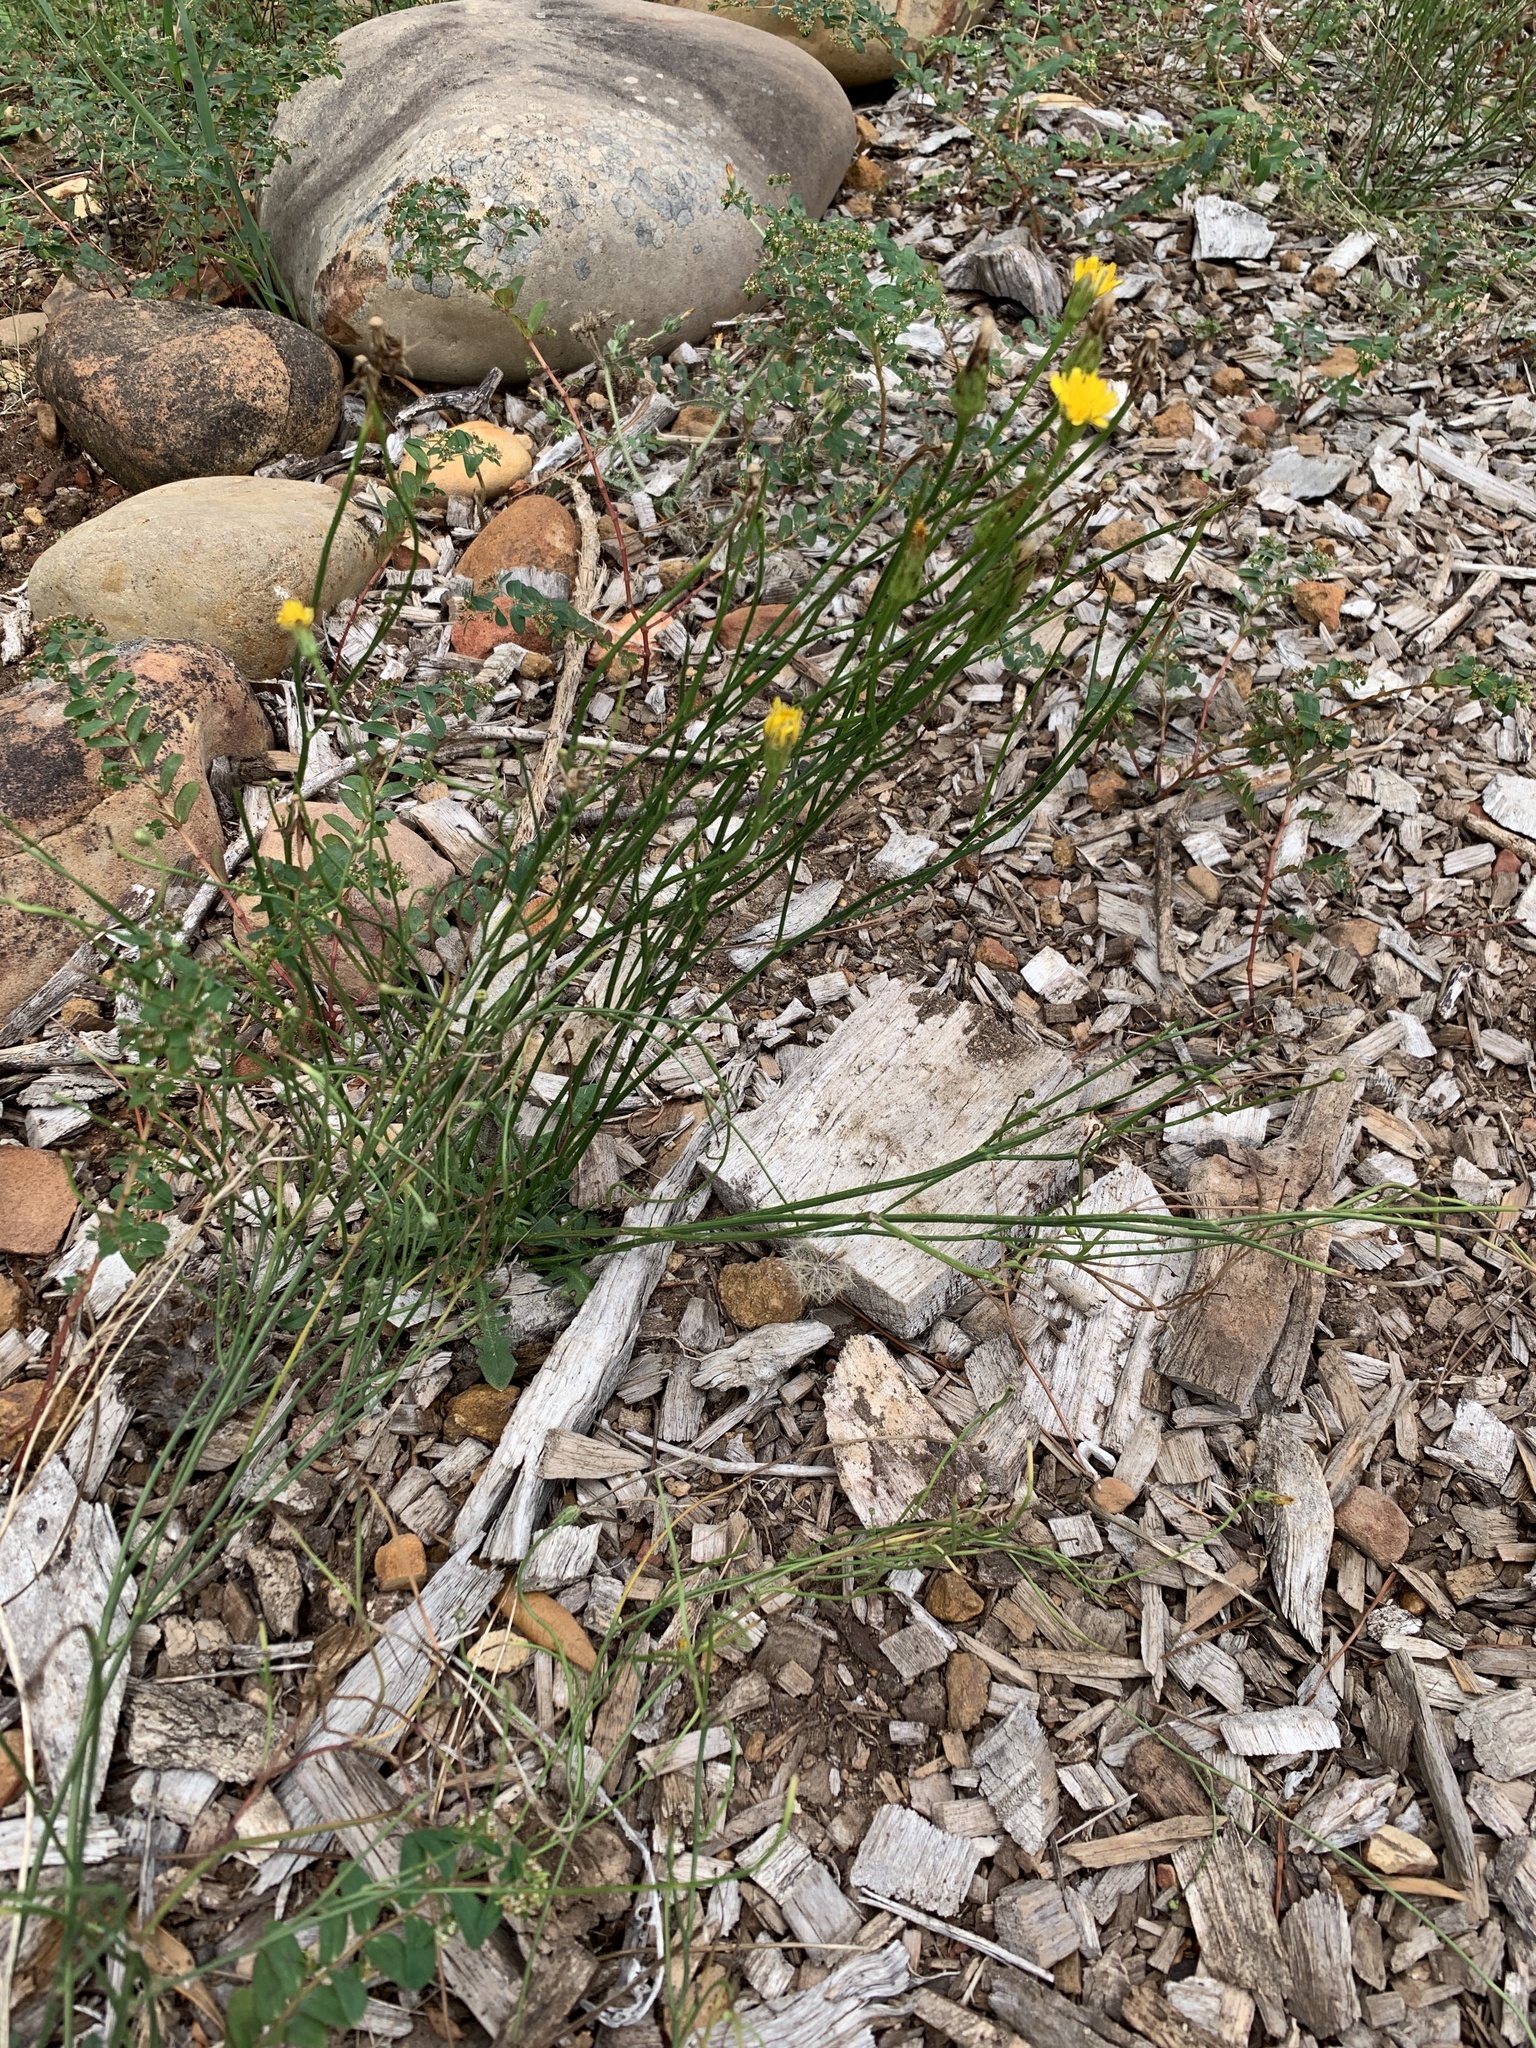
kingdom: Plantae
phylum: Tracheophyta
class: Magnoliopsida
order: Asterales
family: Asteraceae
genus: Hypochaeris
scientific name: Hypochaeris radicata
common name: Flatweed
